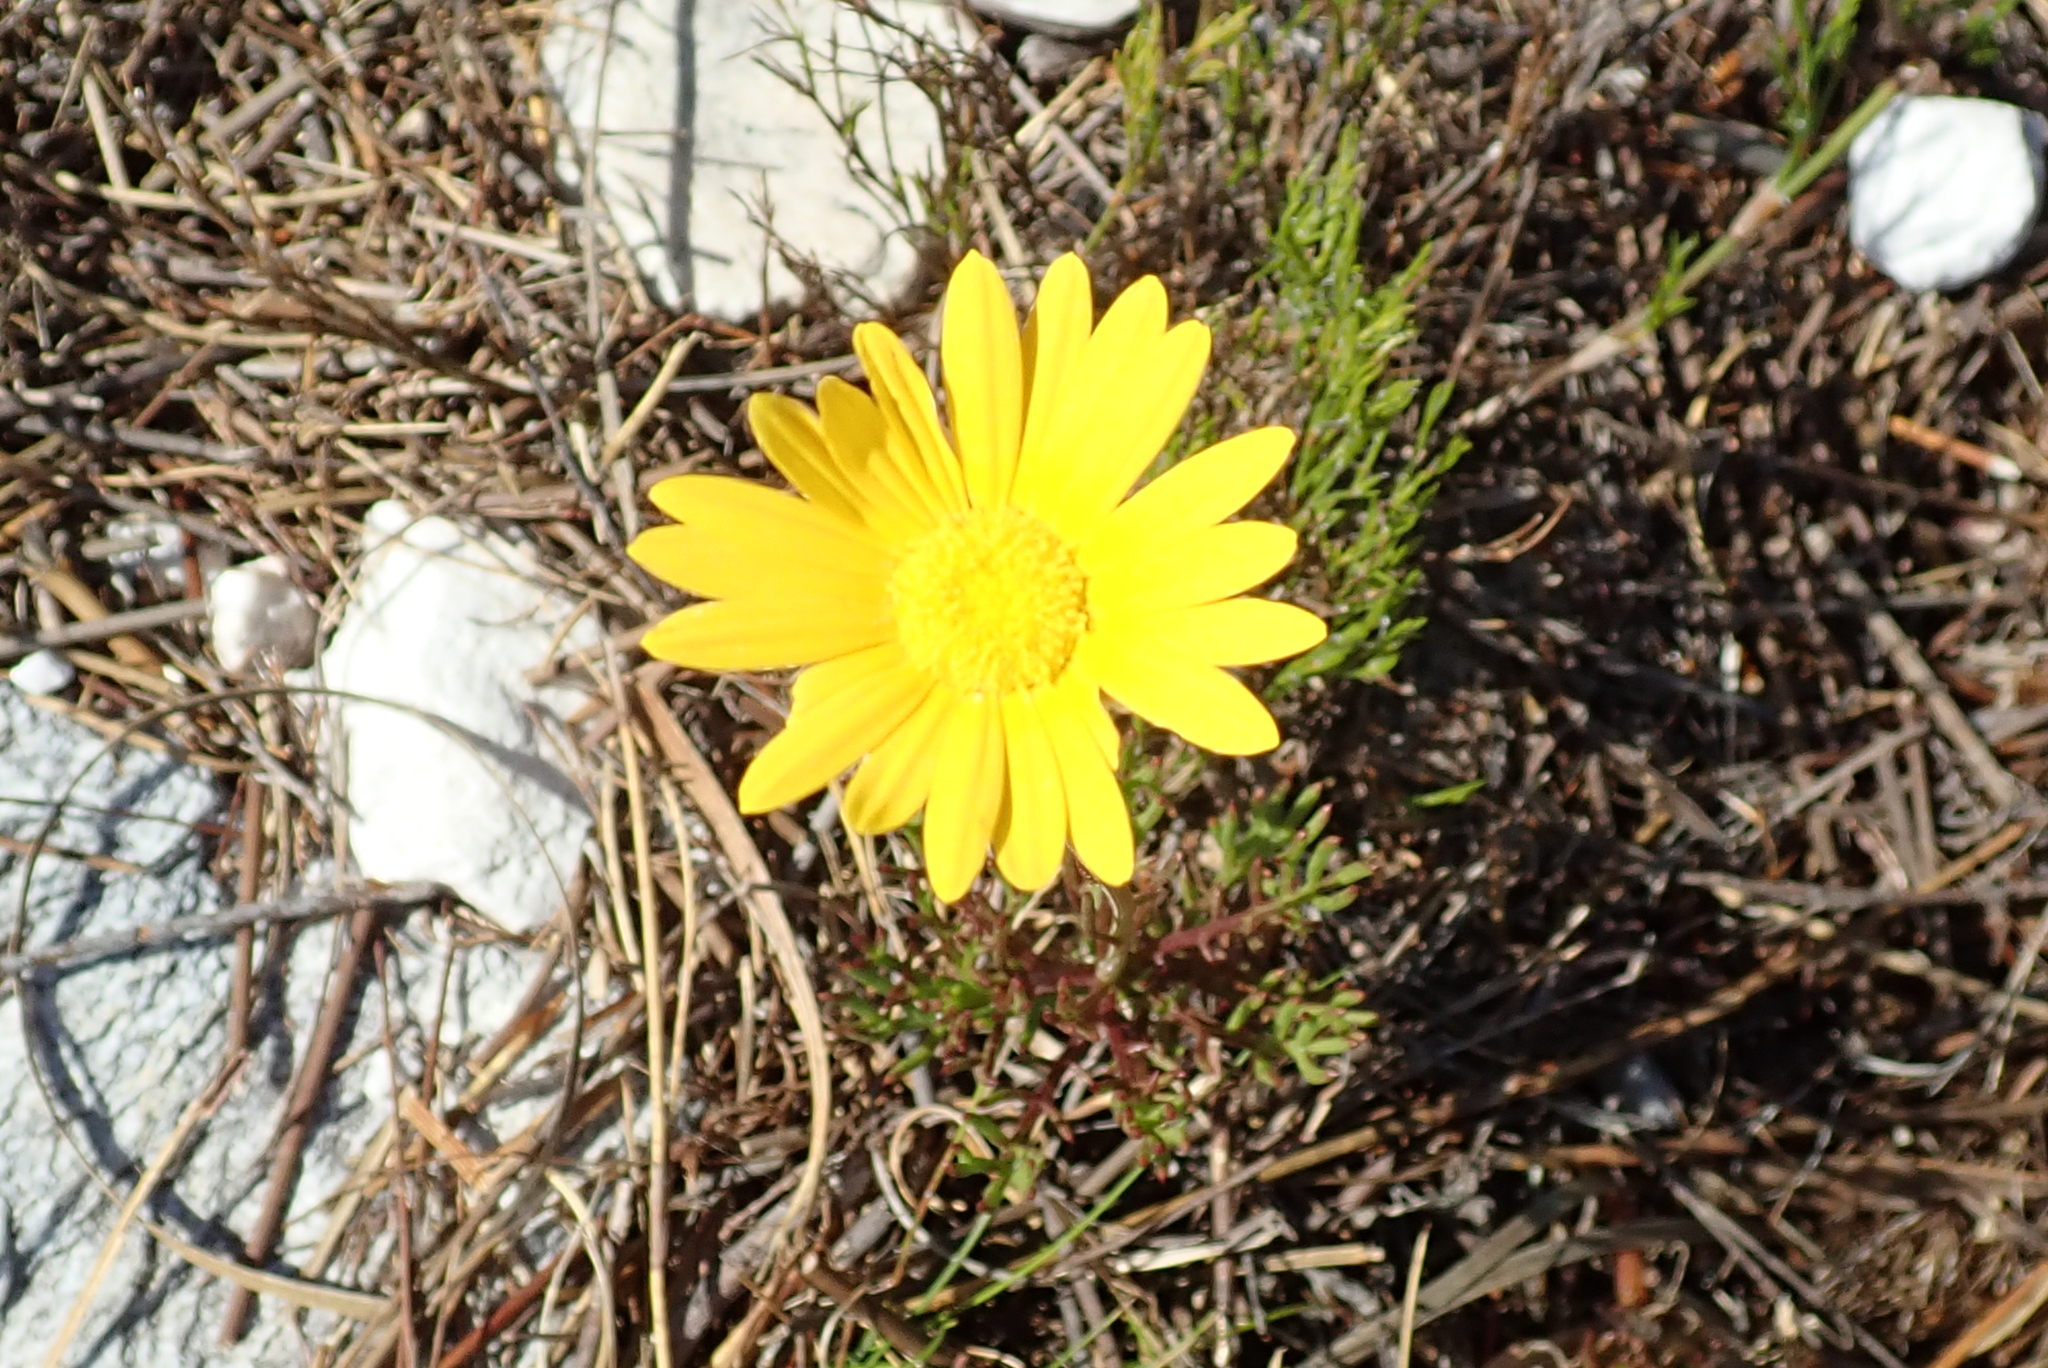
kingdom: Plantae
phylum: Tracheophyta
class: Magnoliopsida
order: Asterales
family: Asteraceae
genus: Ursinia
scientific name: Ursinia paleacea
